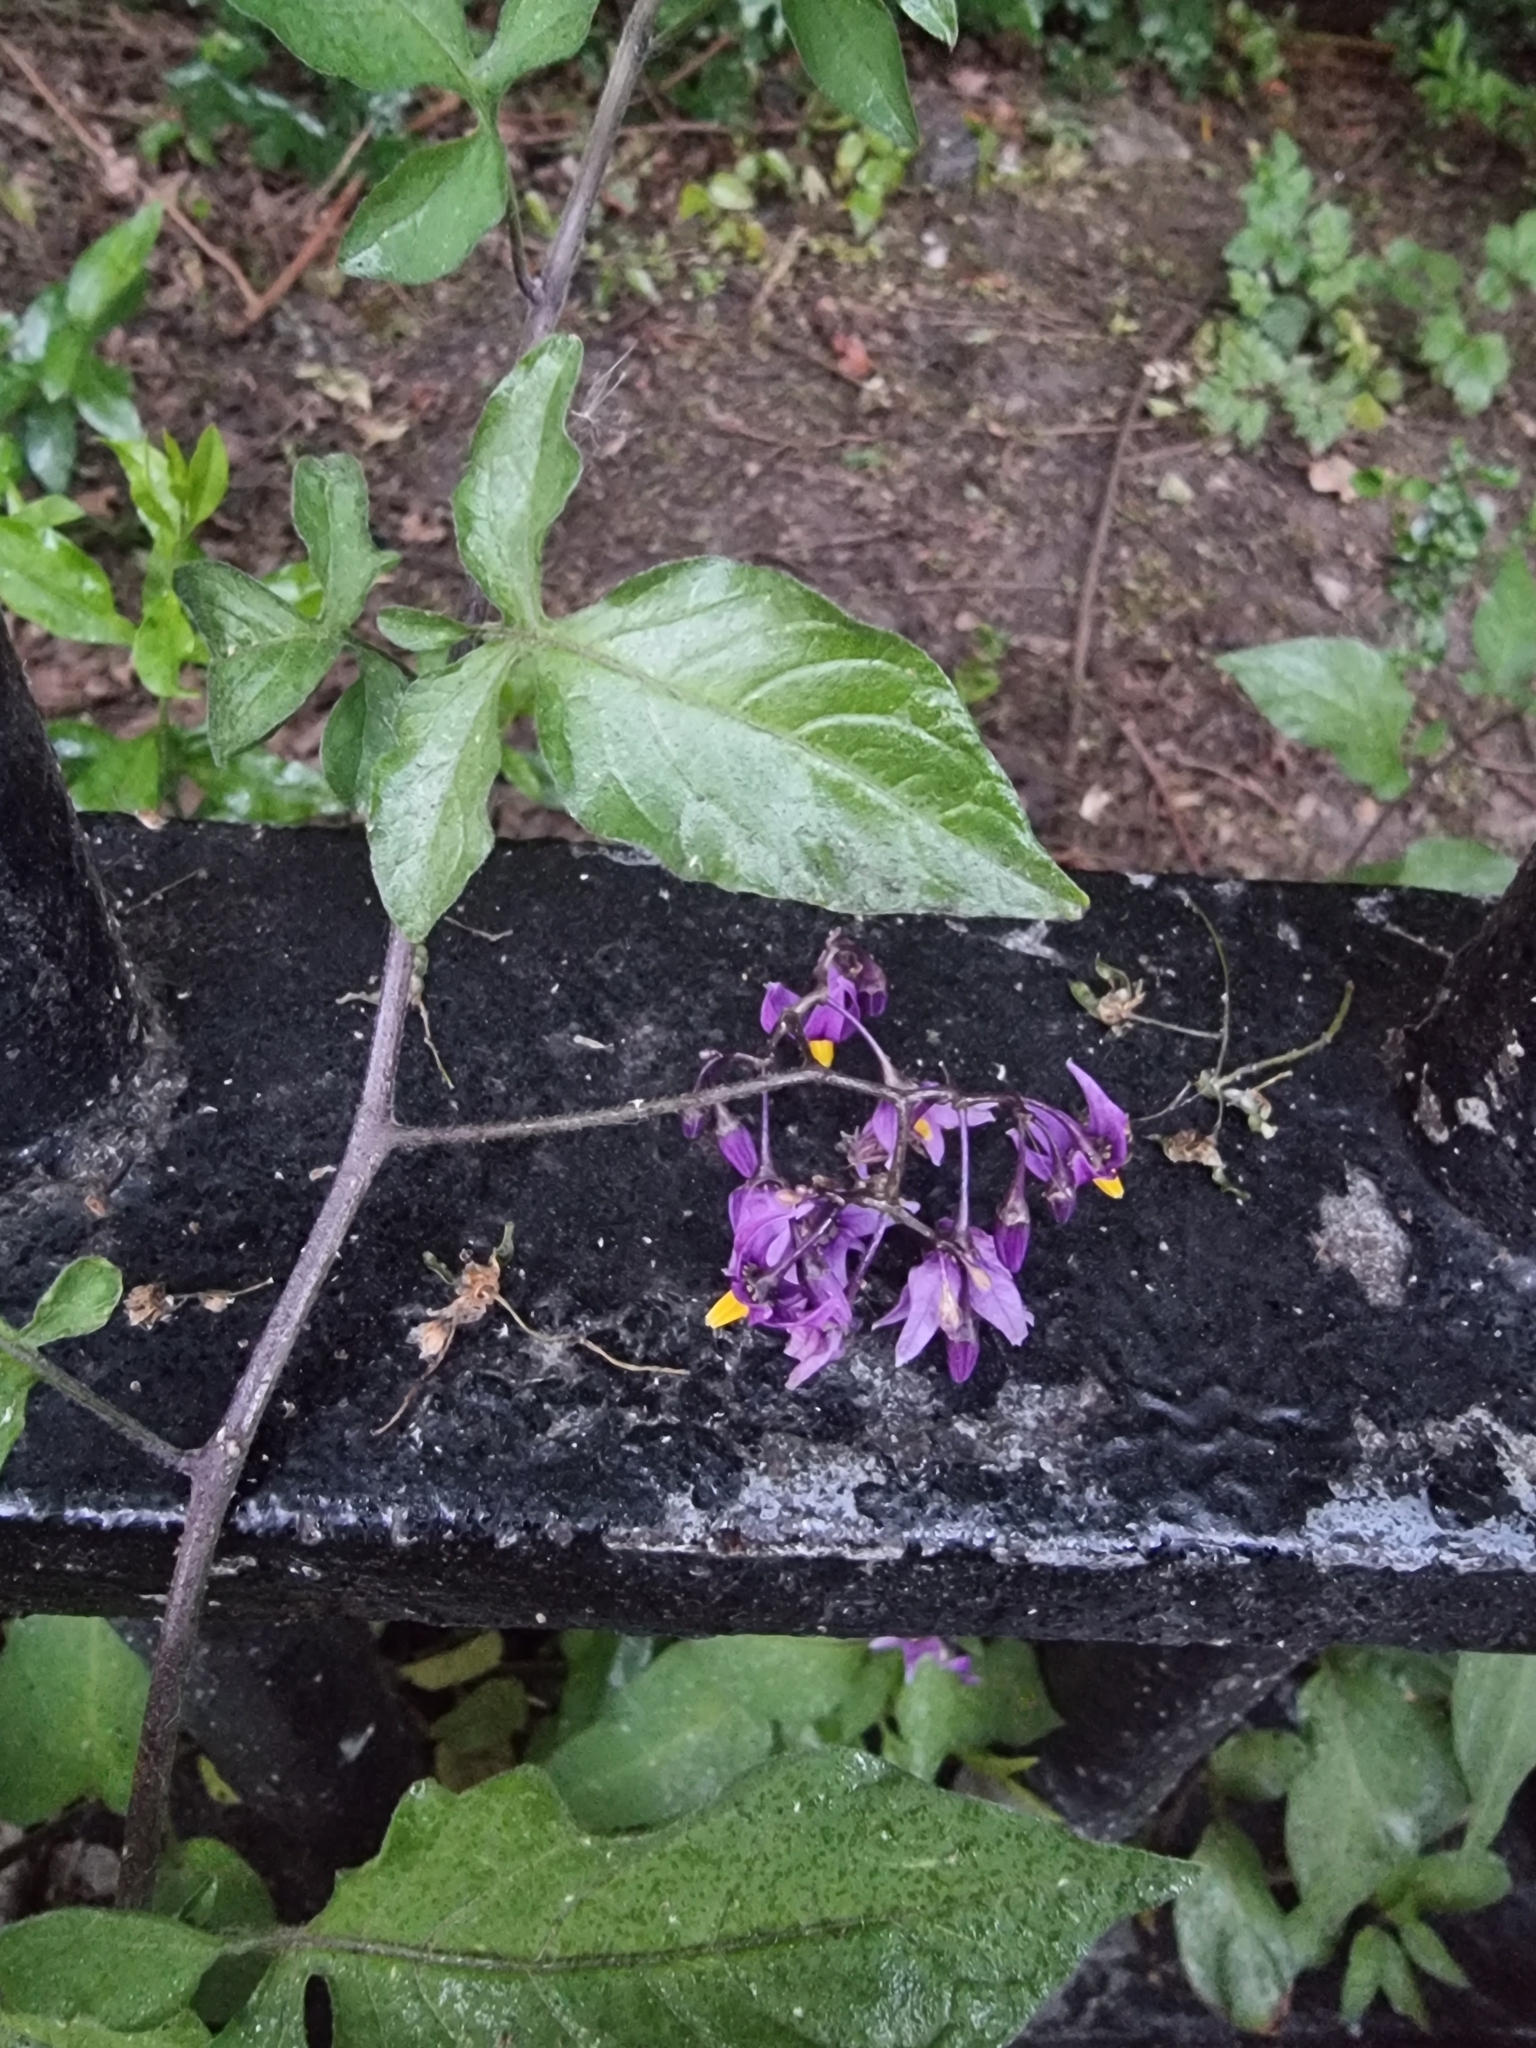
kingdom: Plantae
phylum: Tracheophyta
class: Magnoliopsida
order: Solanales
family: Solanaceae
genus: Solanum
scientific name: Solanum dulcamara
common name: Climbing nightshade
